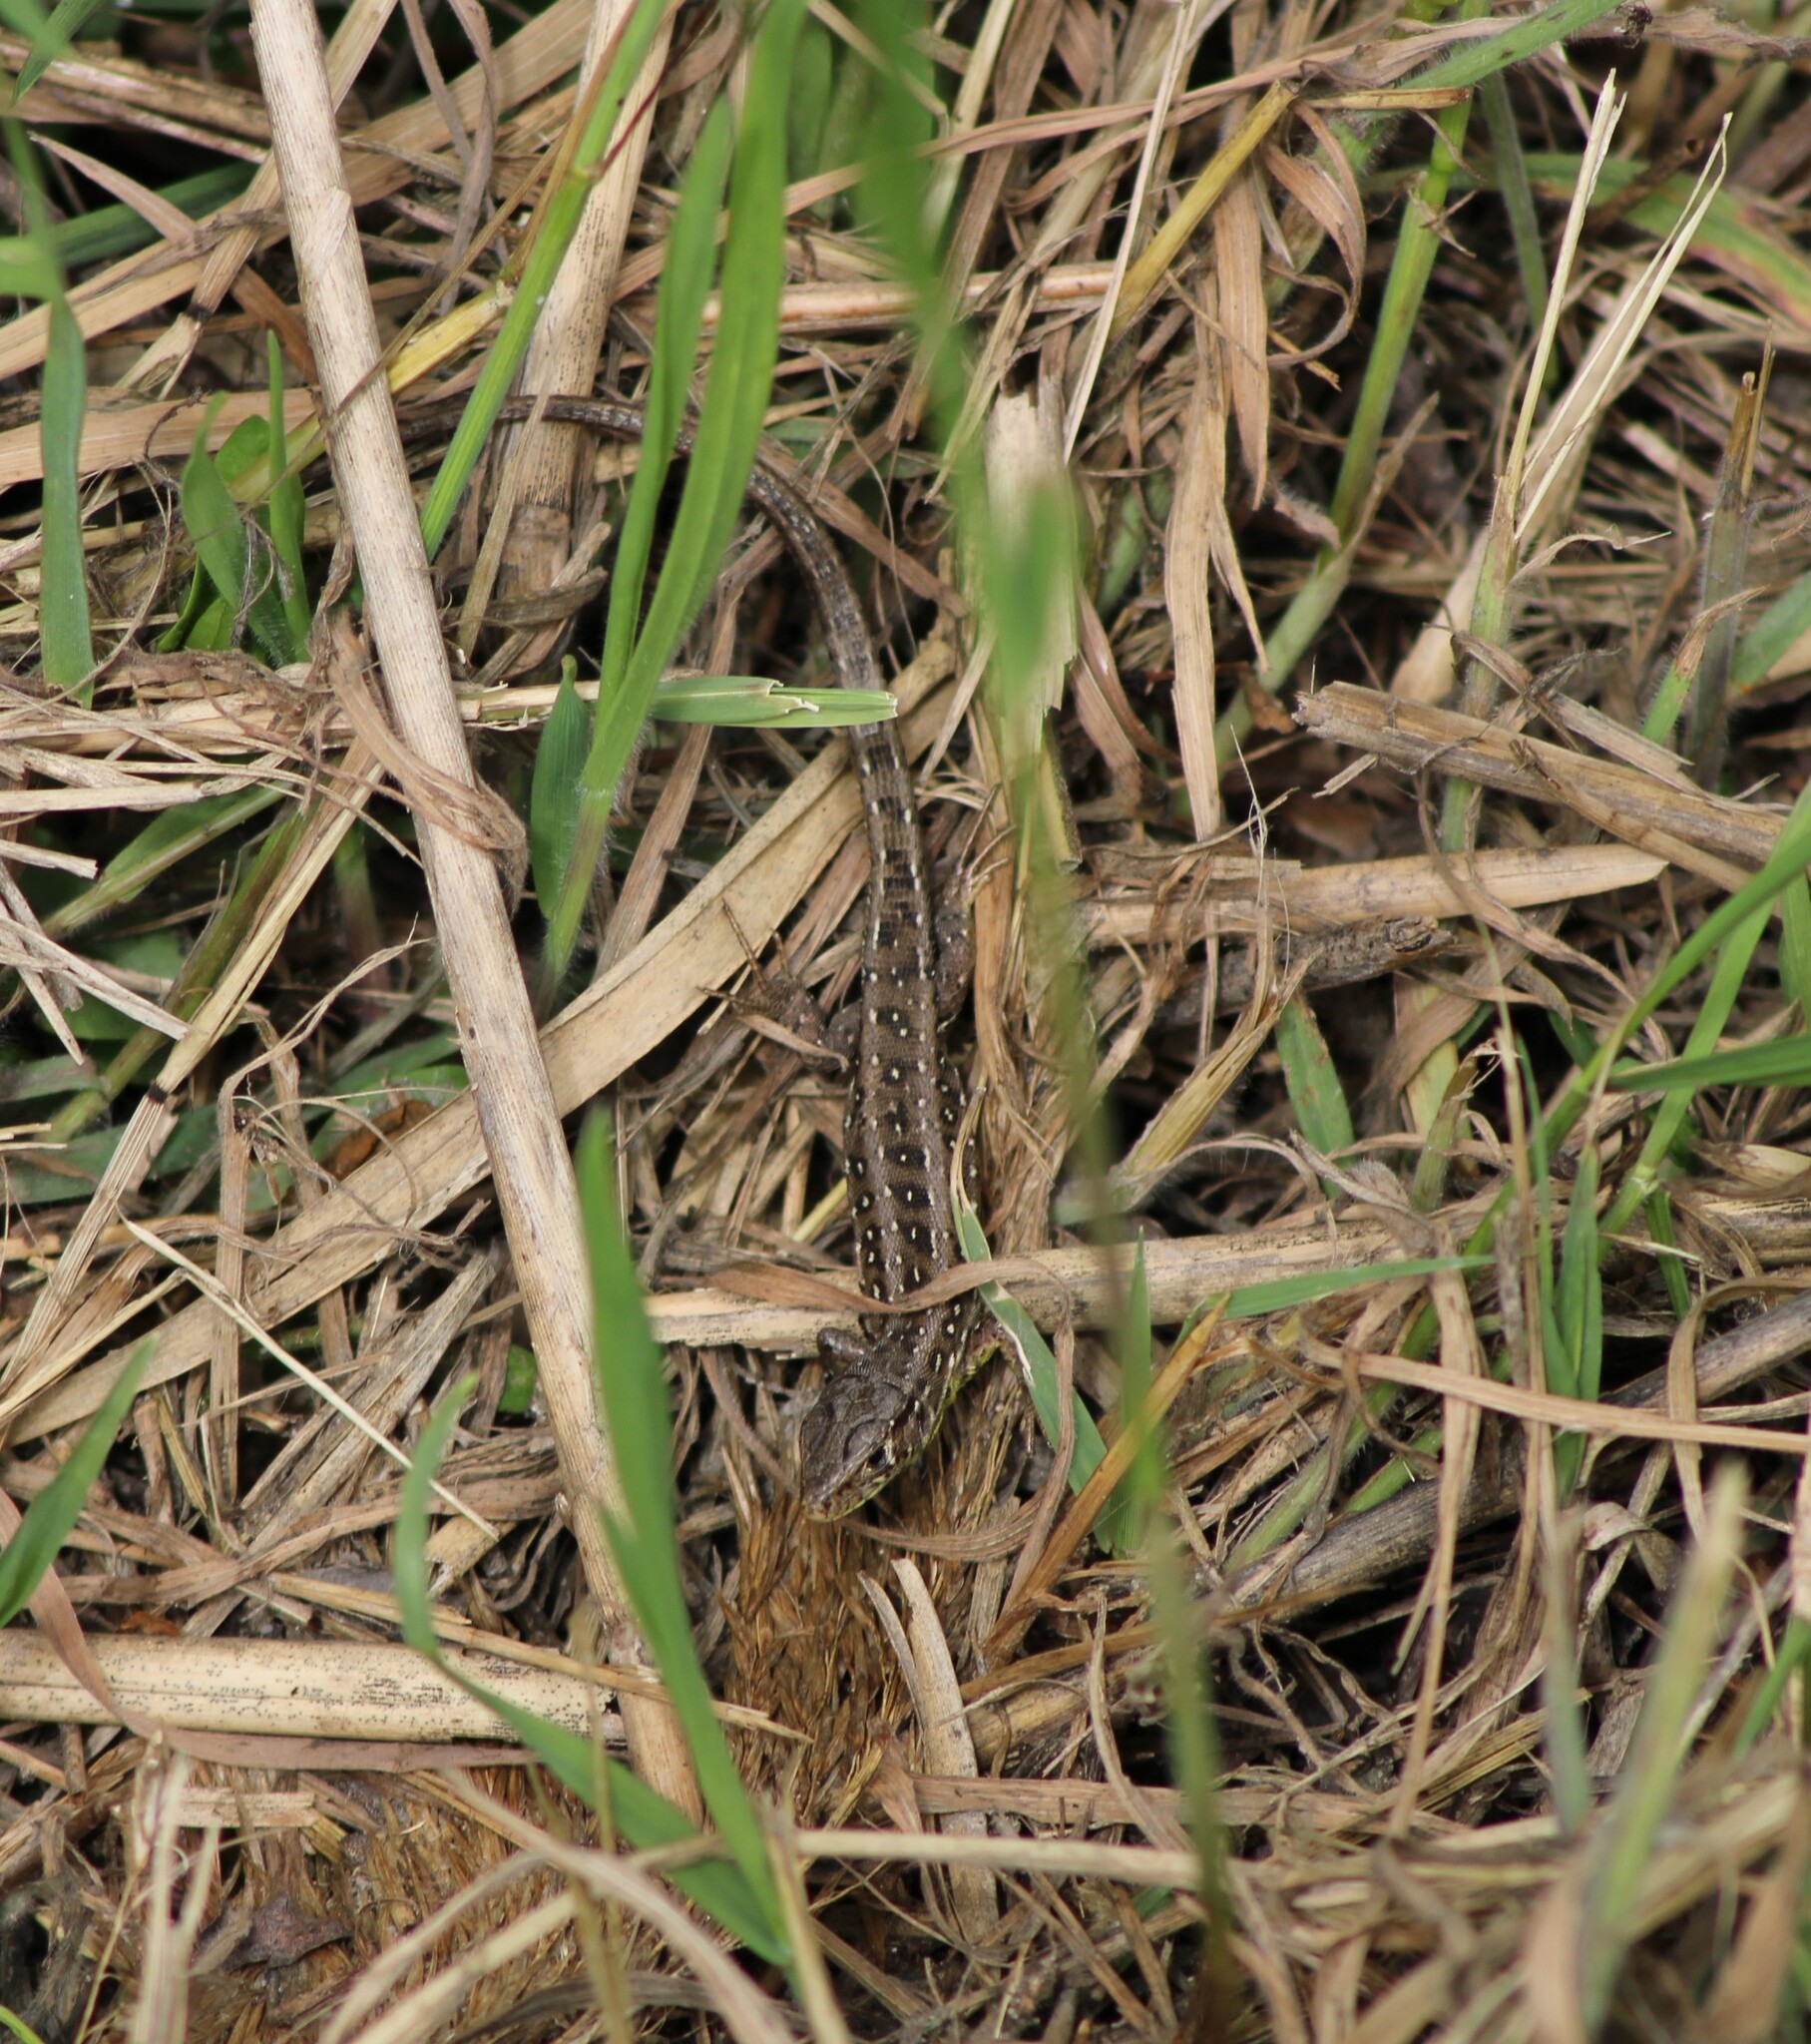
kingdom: Animalia
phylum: Chordata
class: Squamata
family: Lacertidae
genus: Lacerta
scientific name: Lacerta agilis
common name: Sand lizard
